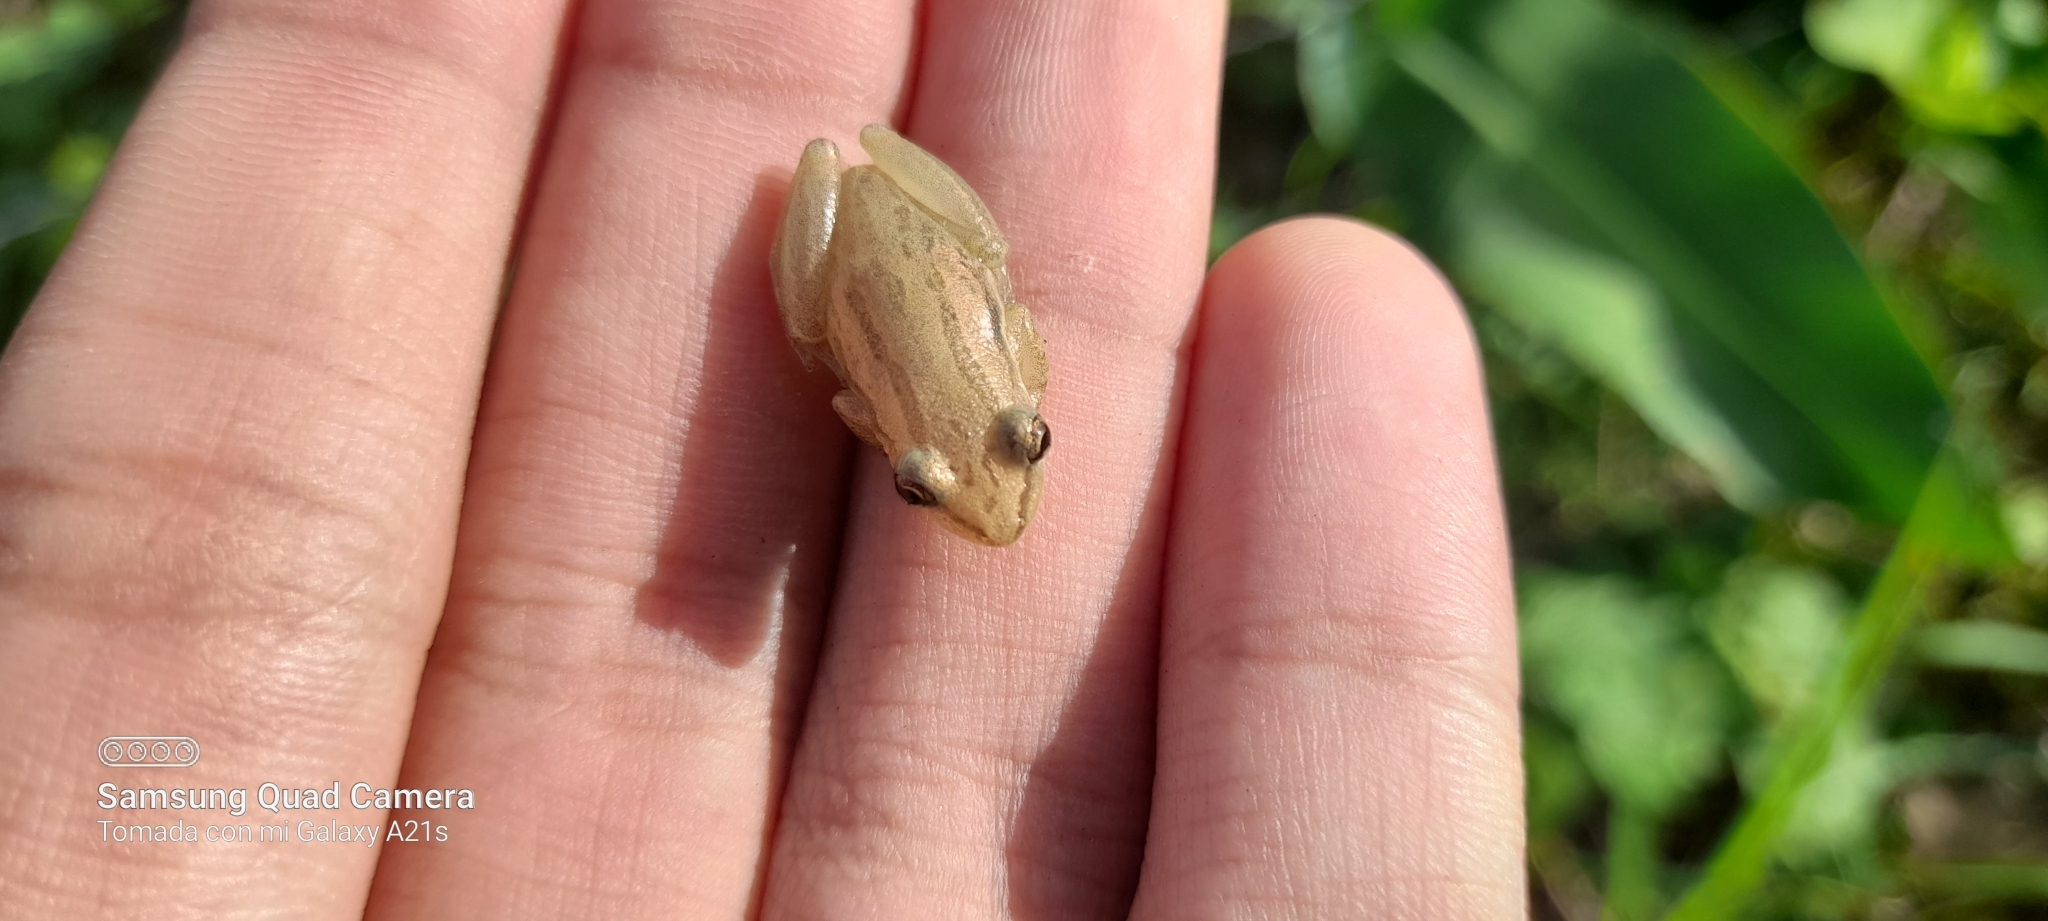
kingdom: Animalia
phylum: Chordata
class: Amphibia
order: Anura
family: Hylidae
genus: Scinax
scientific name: Scinax altae
